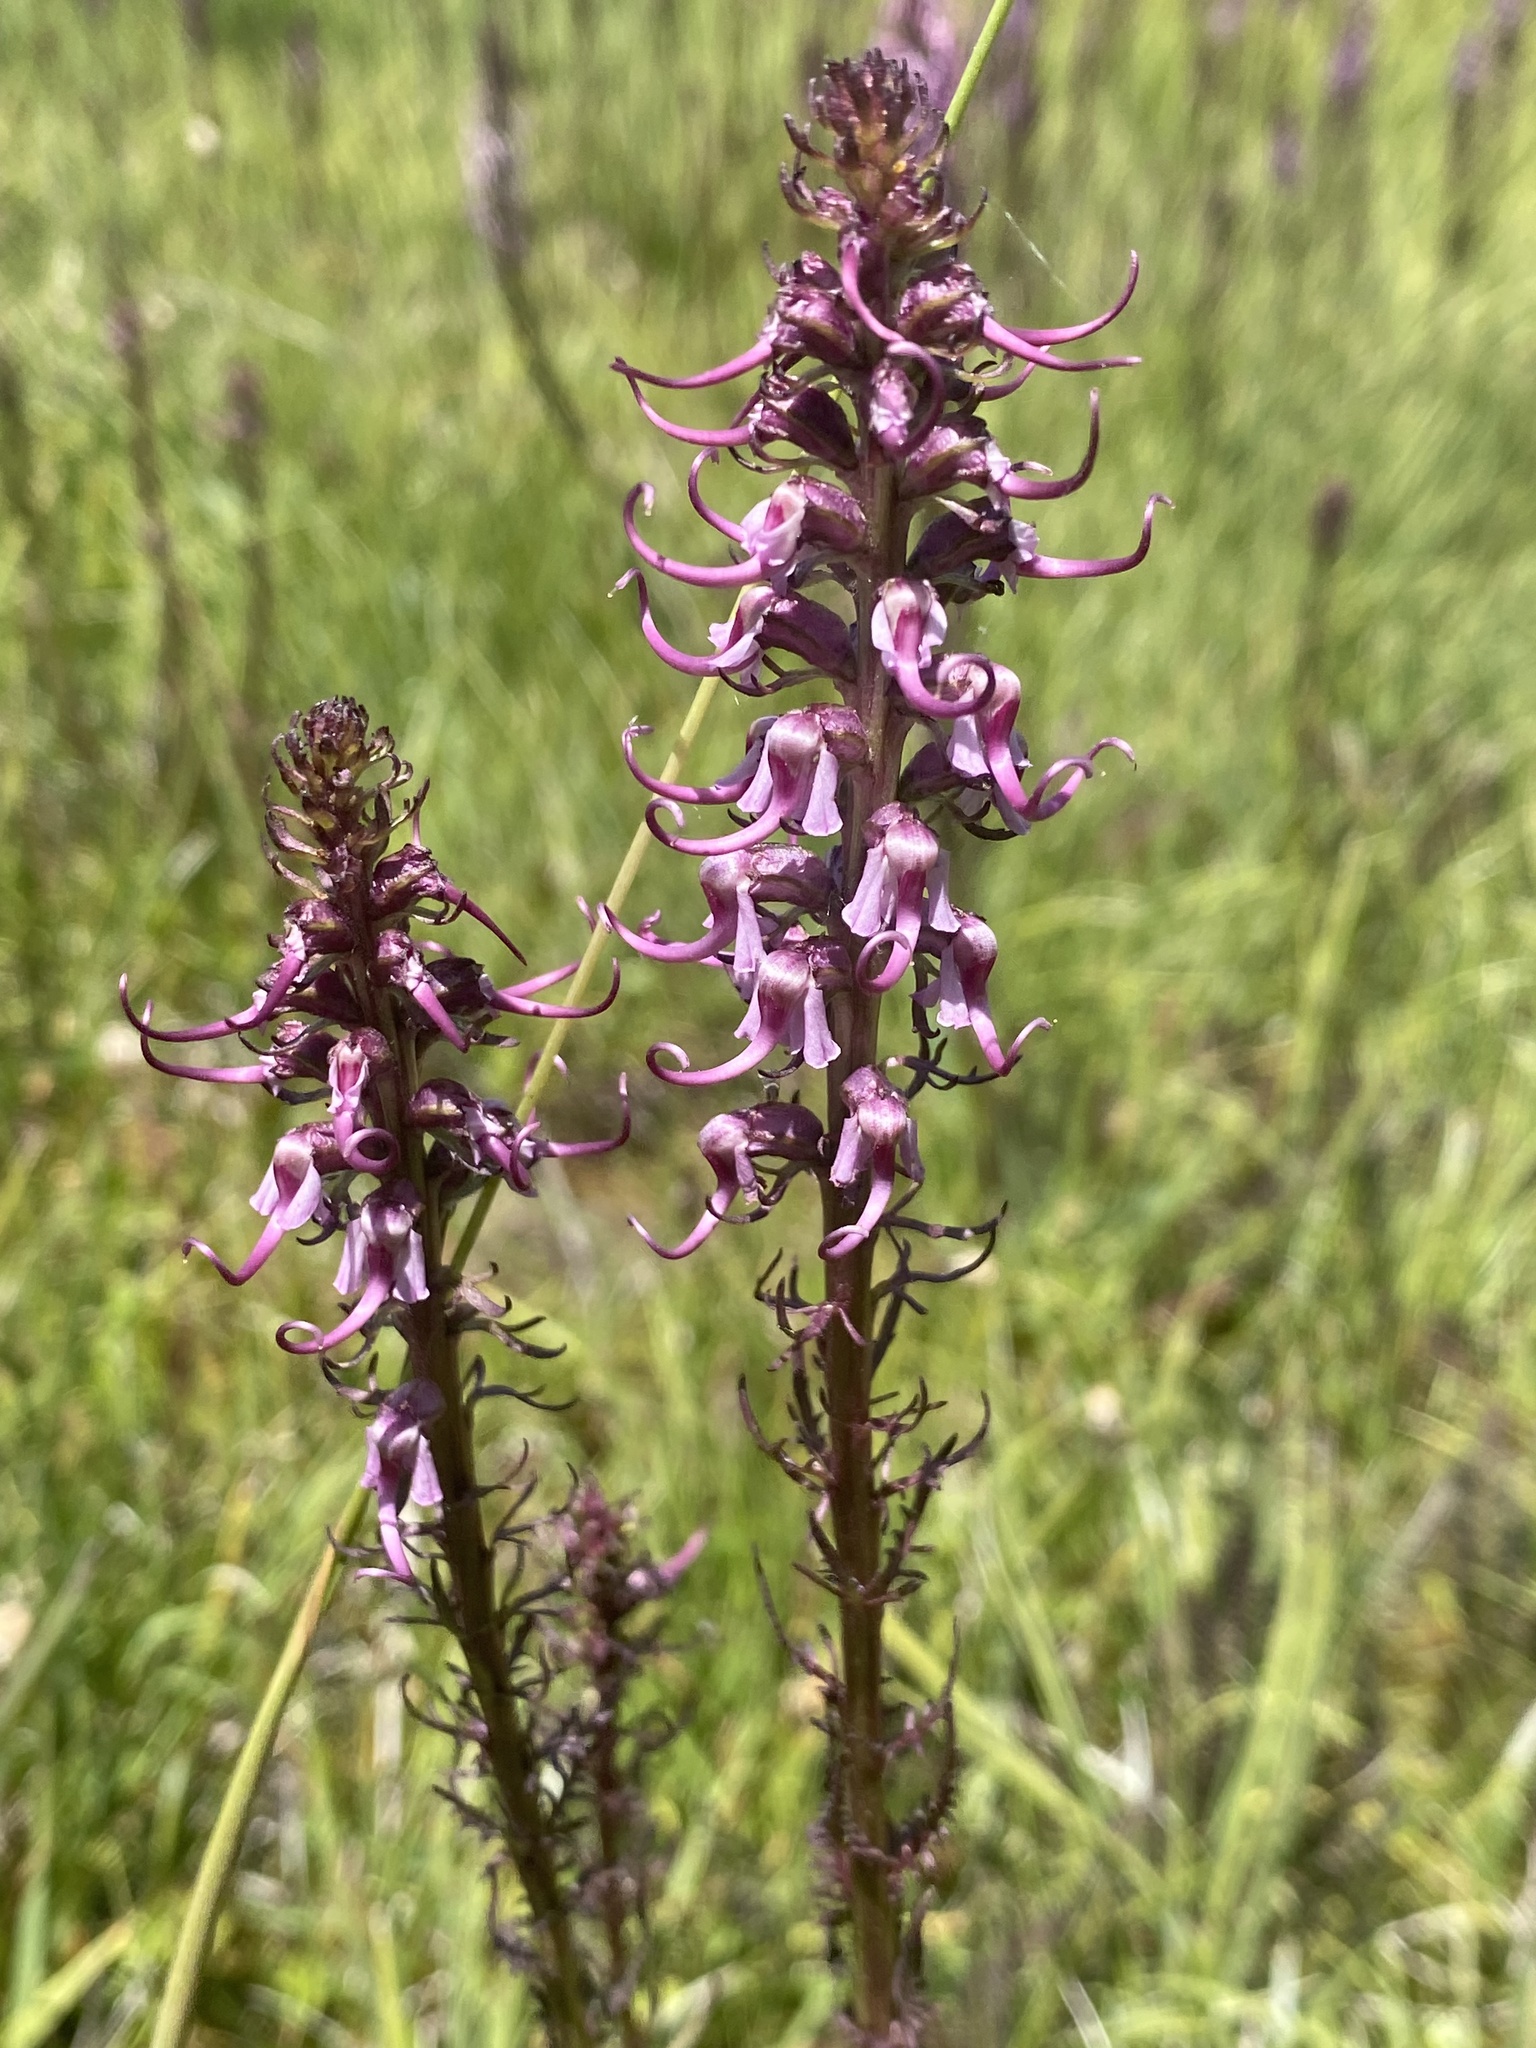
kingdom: Plantae
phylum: Tracheophyta
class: Magnoliopsida
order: Lamiales
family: Orobanchaceae
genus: Pedicularis
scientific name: Pedicularis groenlandica
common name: Elephant's-head
